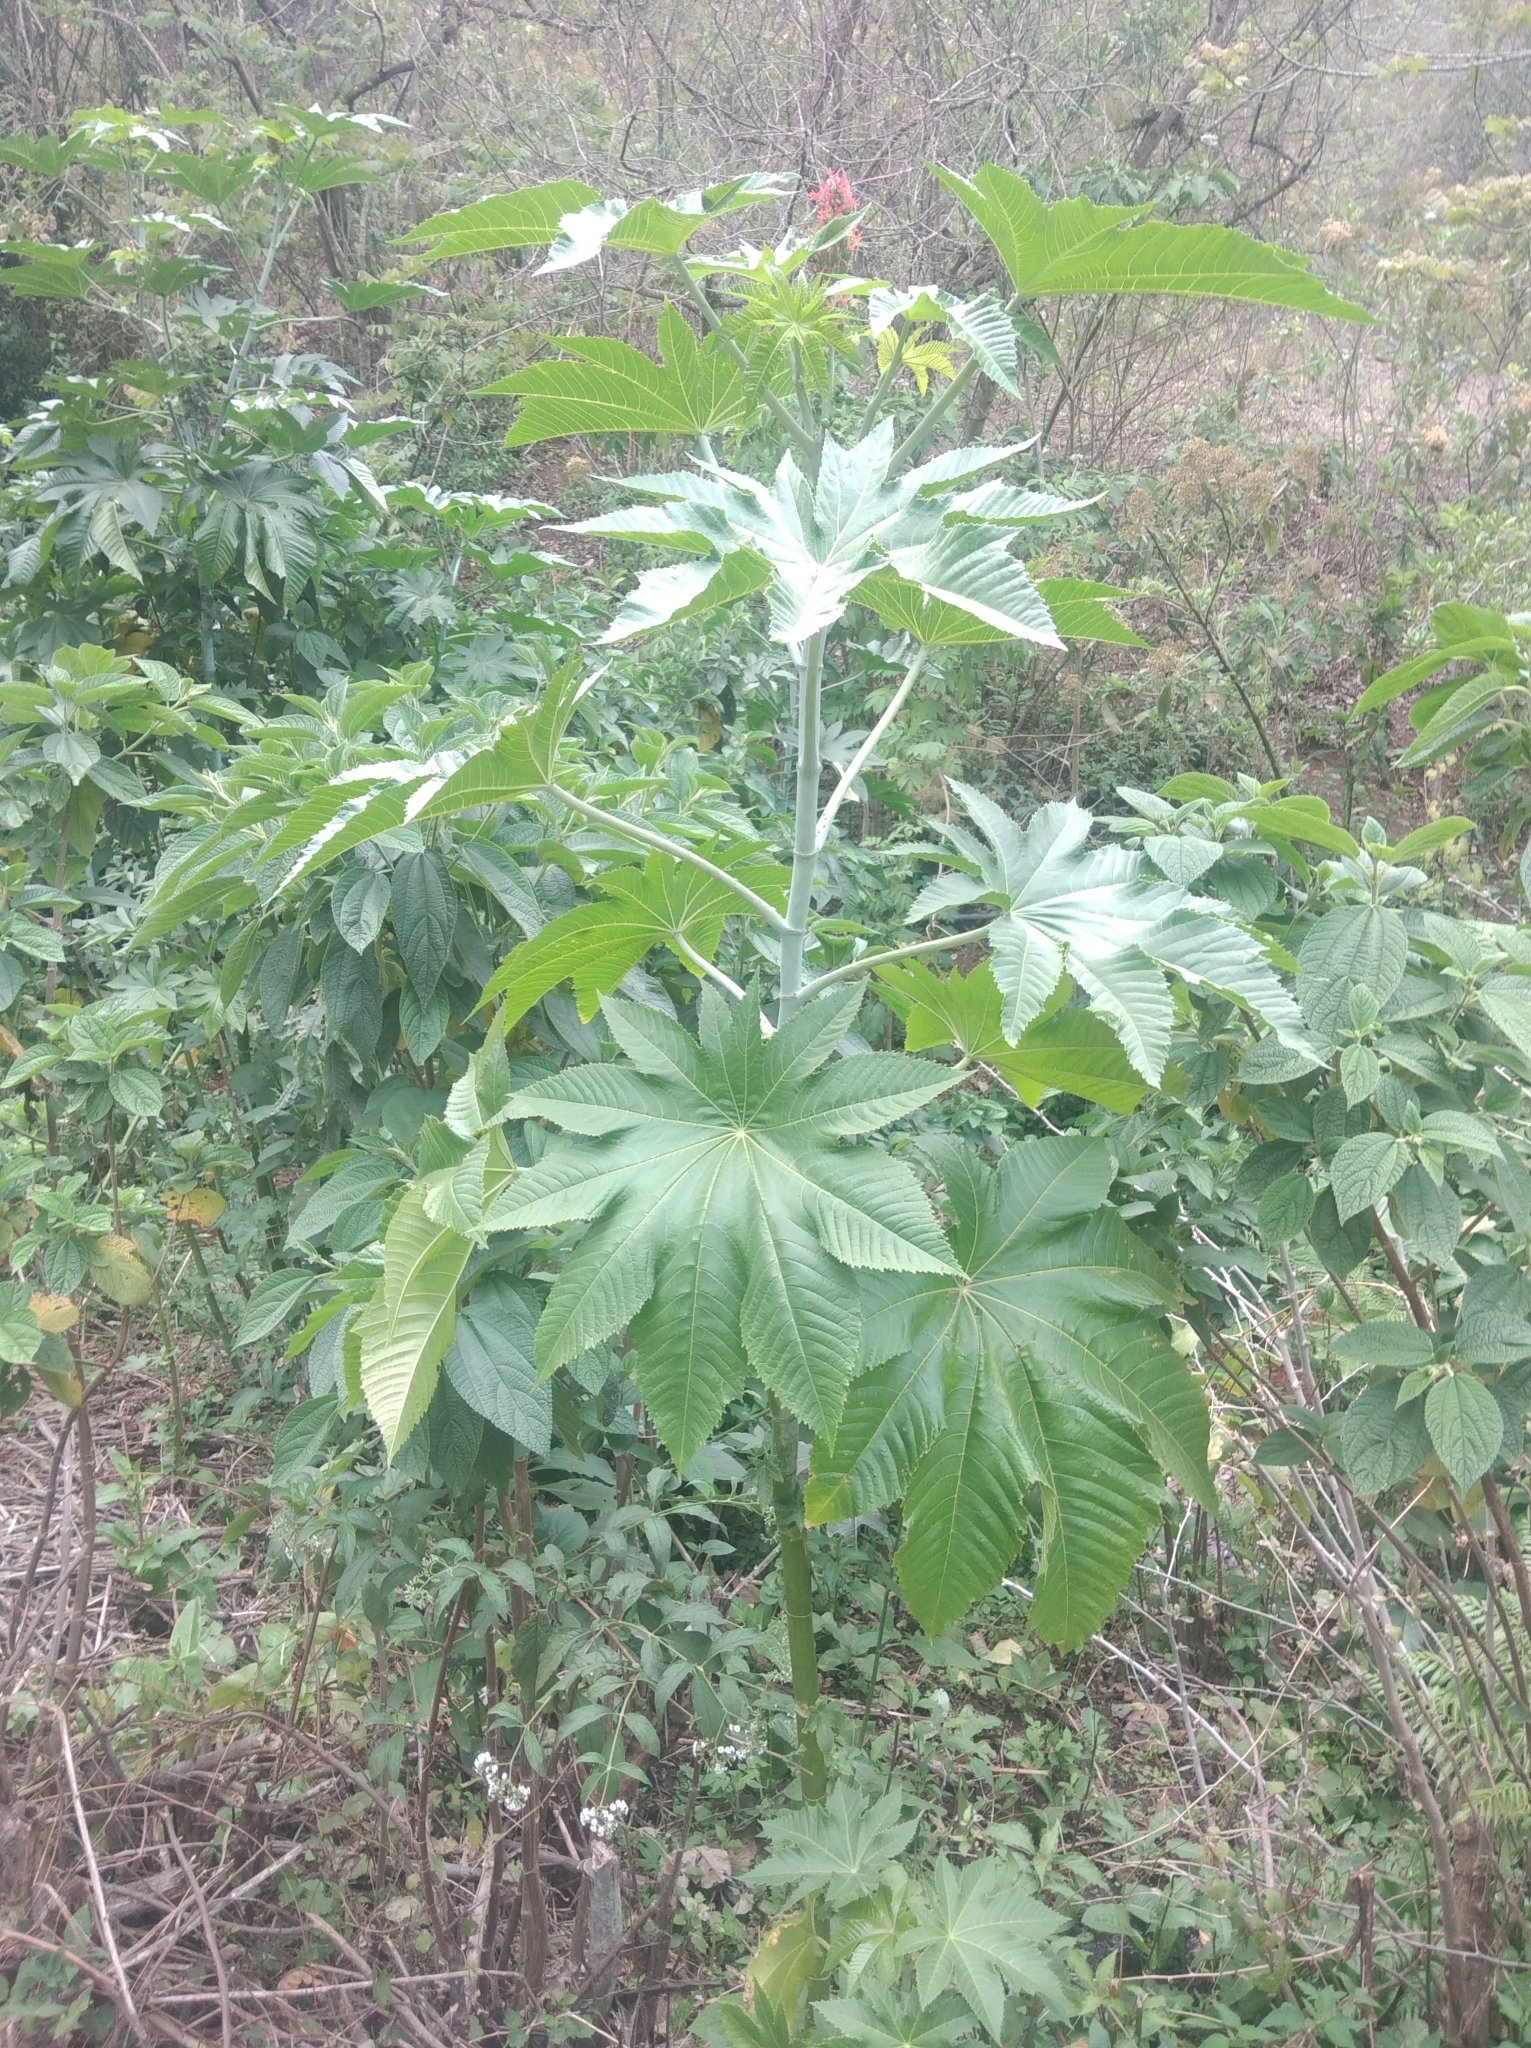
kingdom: Plantae
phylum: Tracheophyta
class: Magnoliopsida
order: Malpighiales
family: Euphorbiaceae
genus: Ricinus
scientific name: Ricinus communis
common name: Castor-oil-plant
